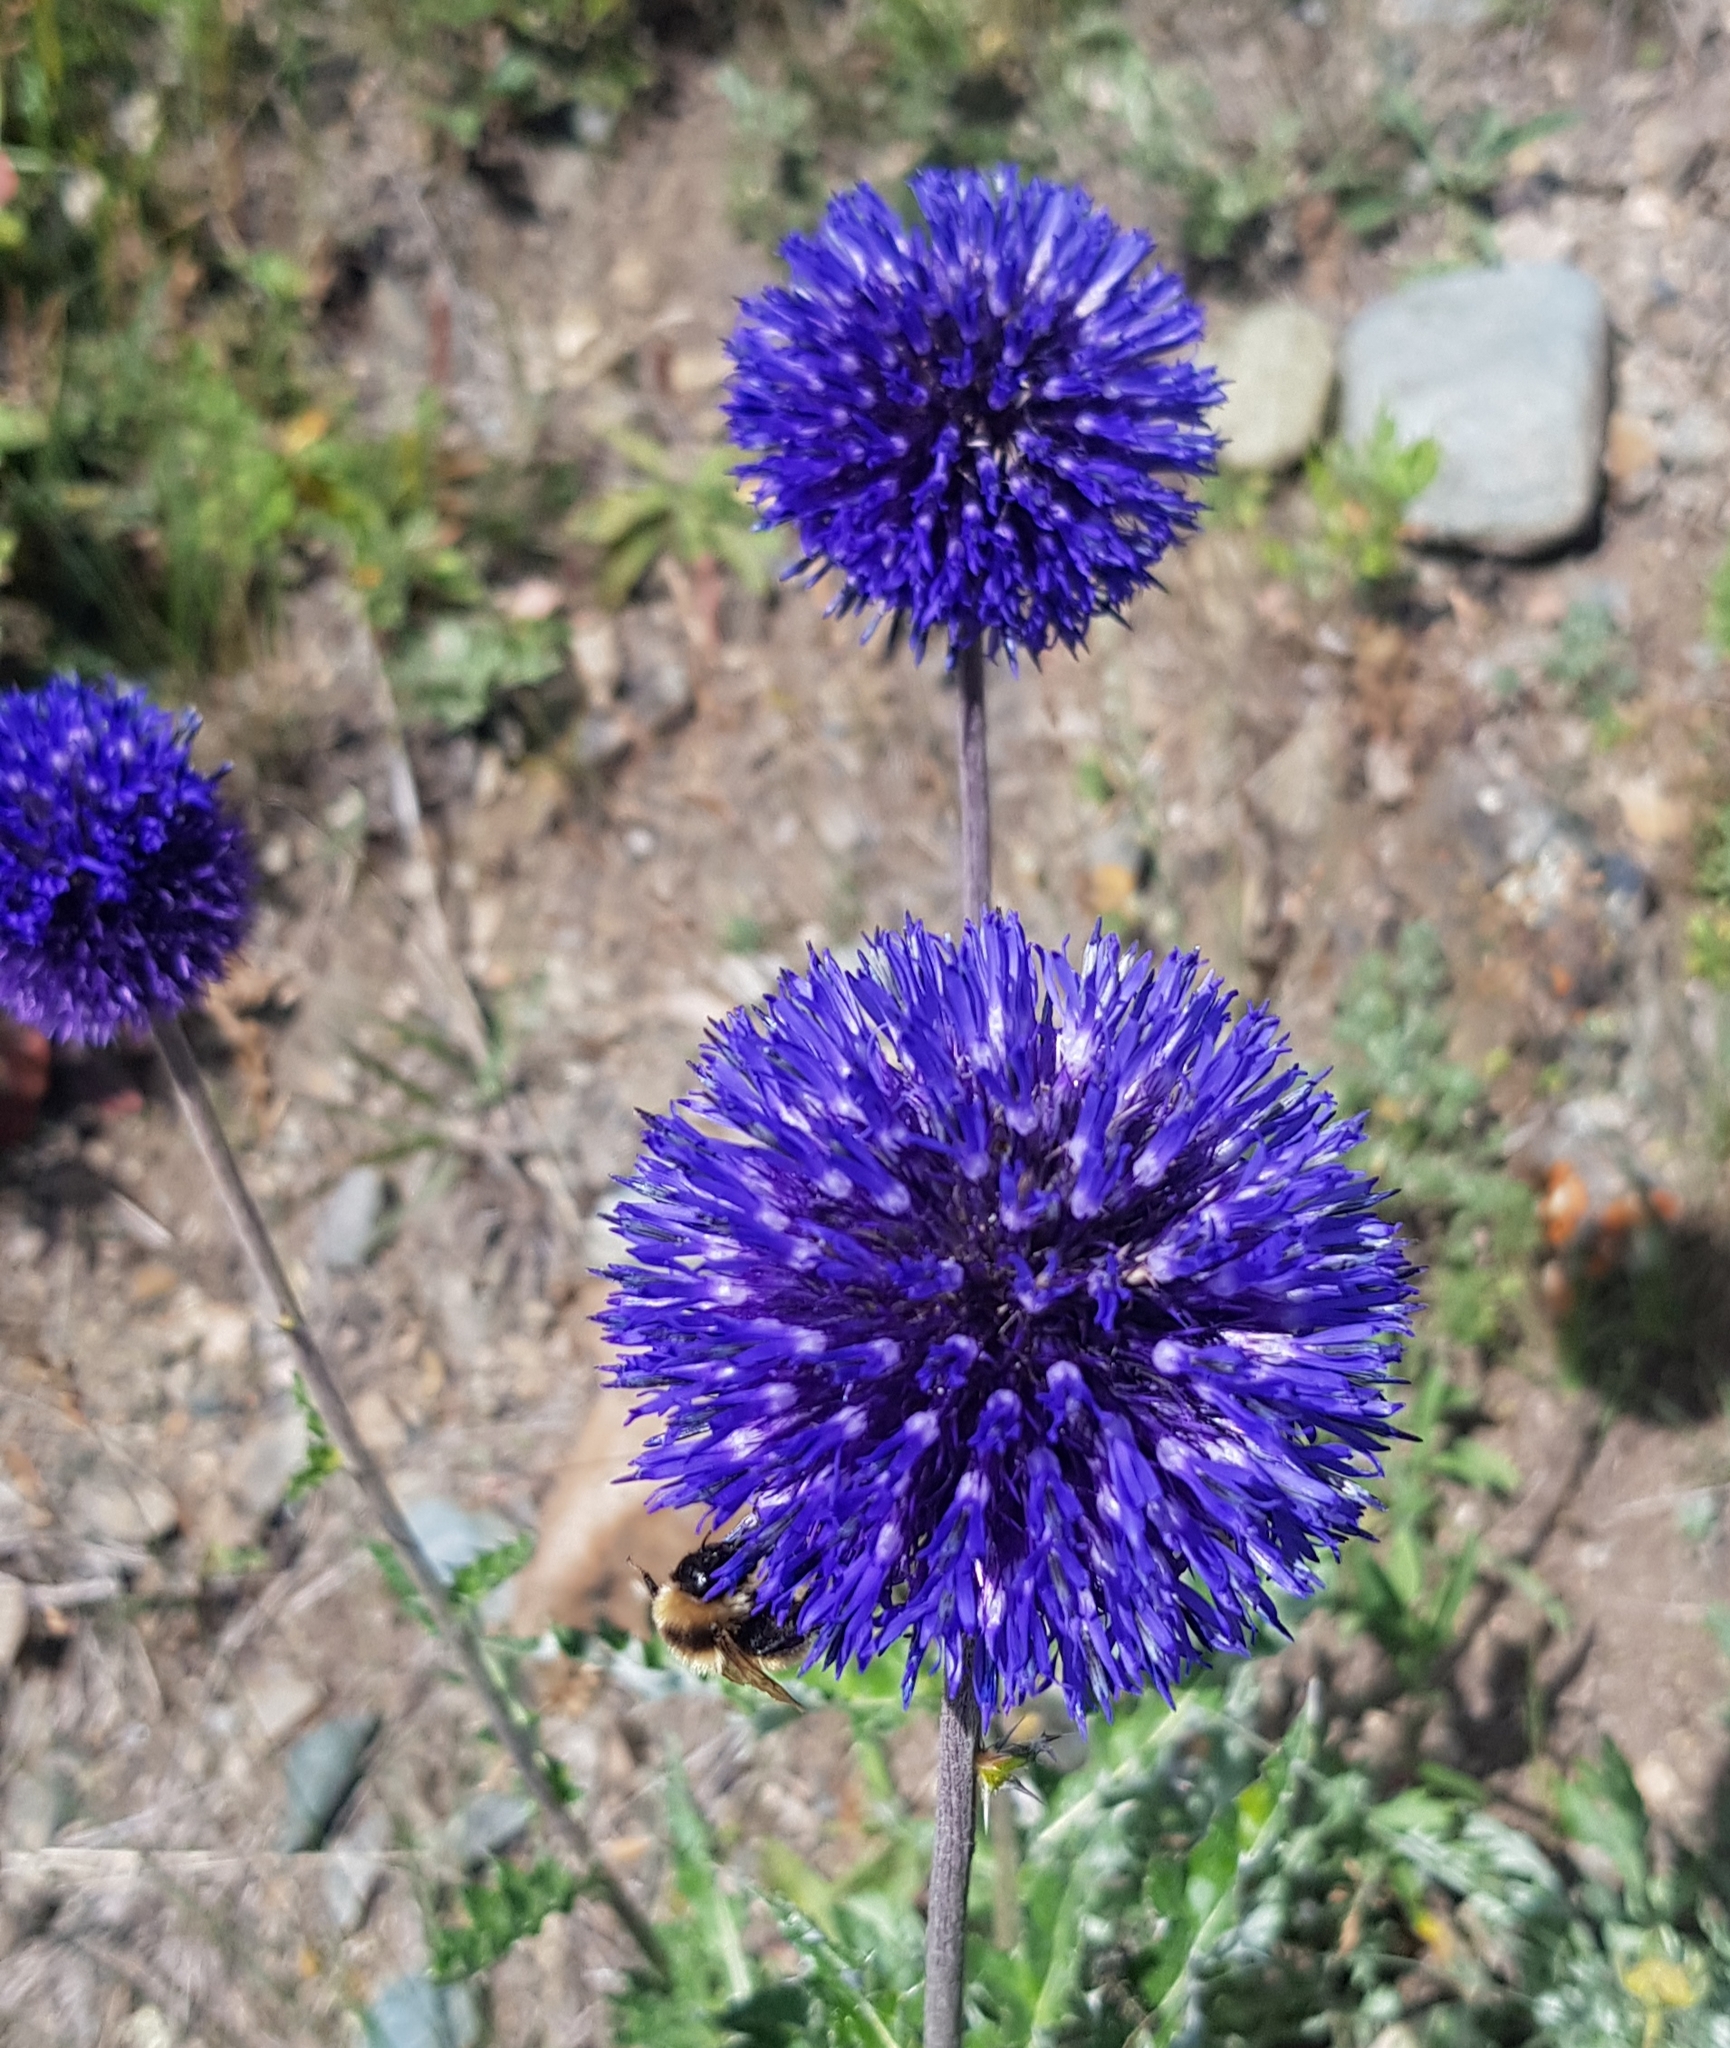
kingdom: Plantae
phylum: Tracheophyta
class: Magnoliopsida
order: Asterales
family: Asteraceae
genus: Echinops
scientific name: Echinops davuricus
